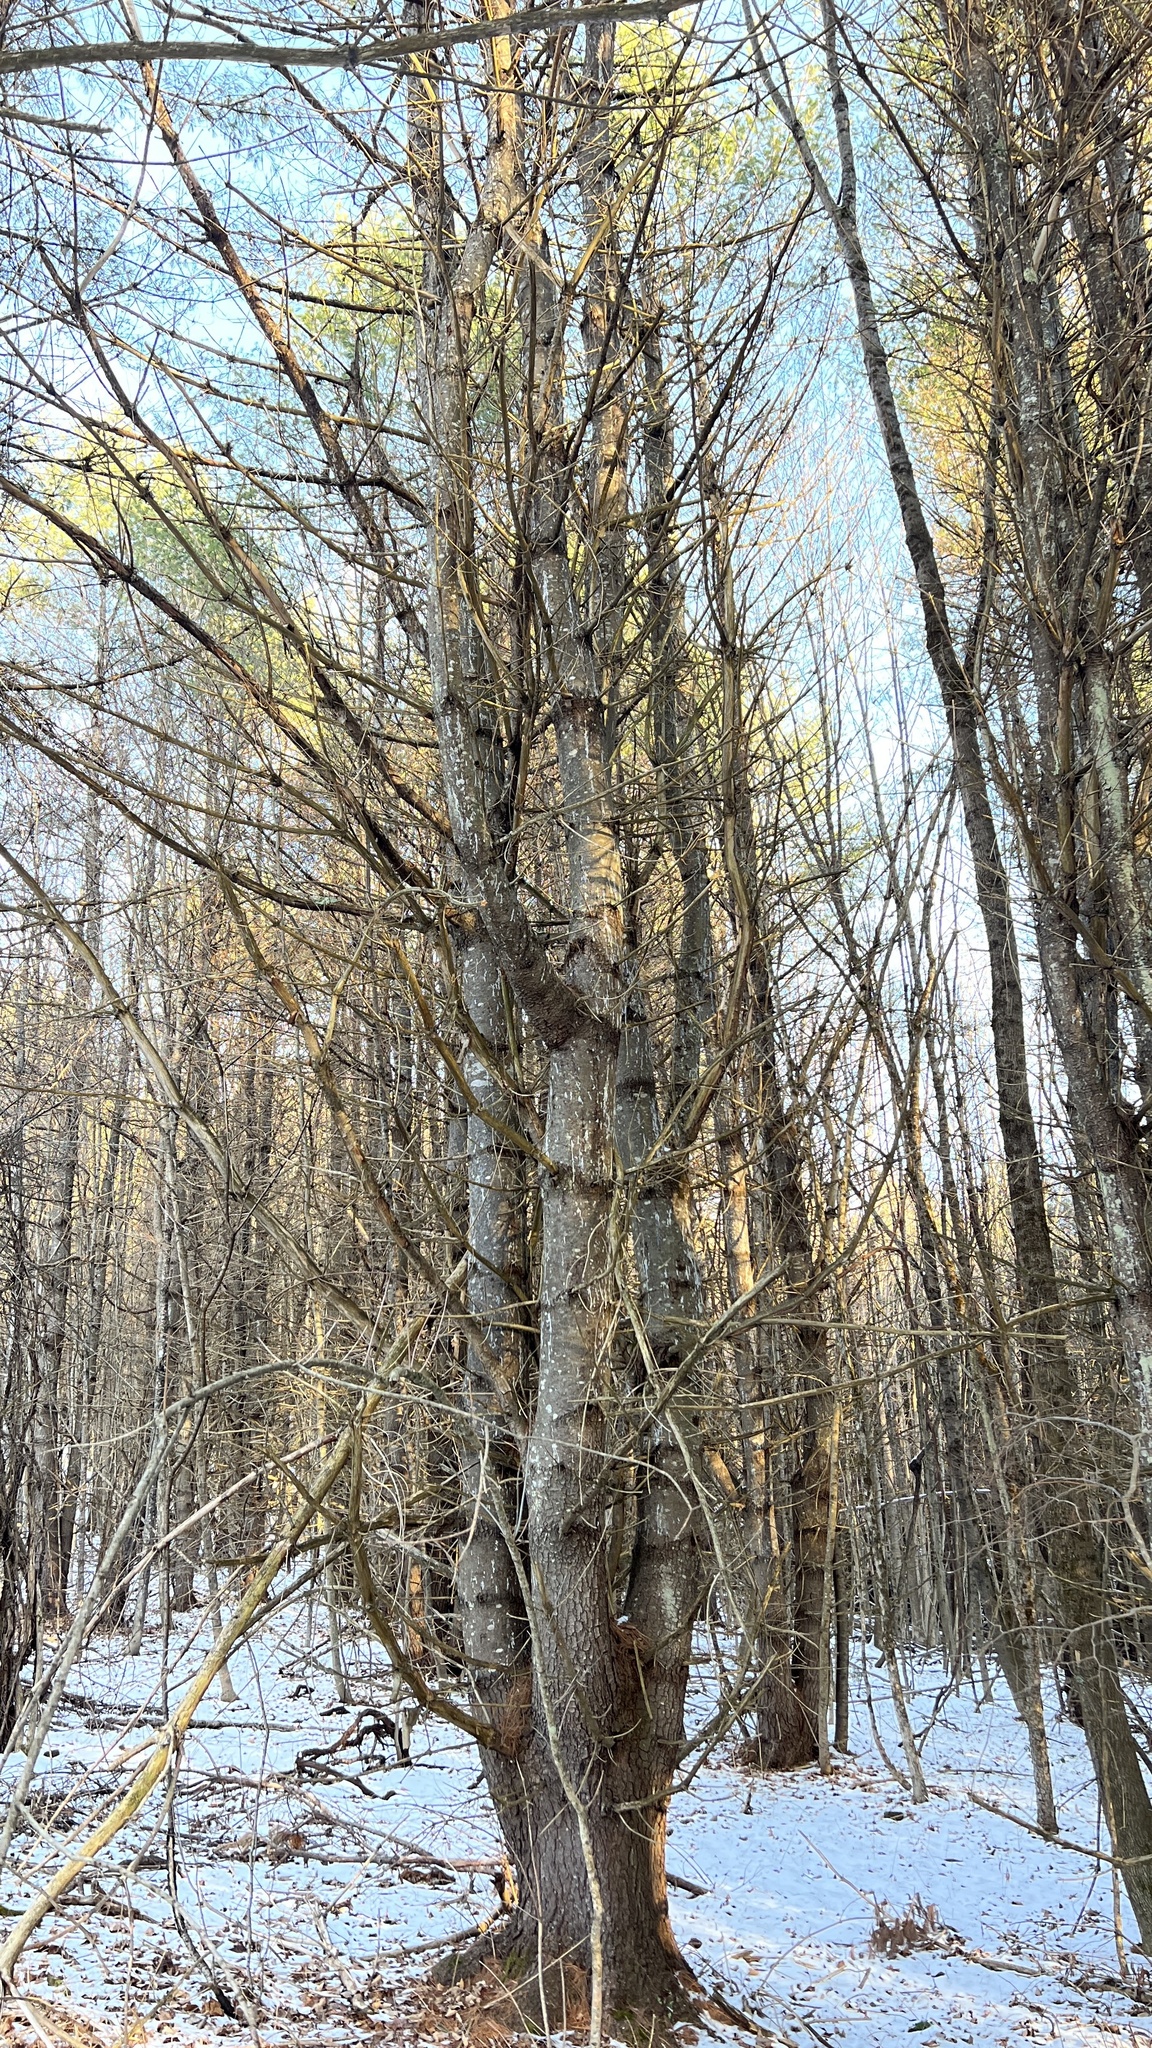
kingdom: Plantae
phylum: Tracheophyta
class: Pinopsida
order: Pinales
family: Pinaceae
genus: Pinus
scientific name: Pinus strobus
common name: Weymouth pine
